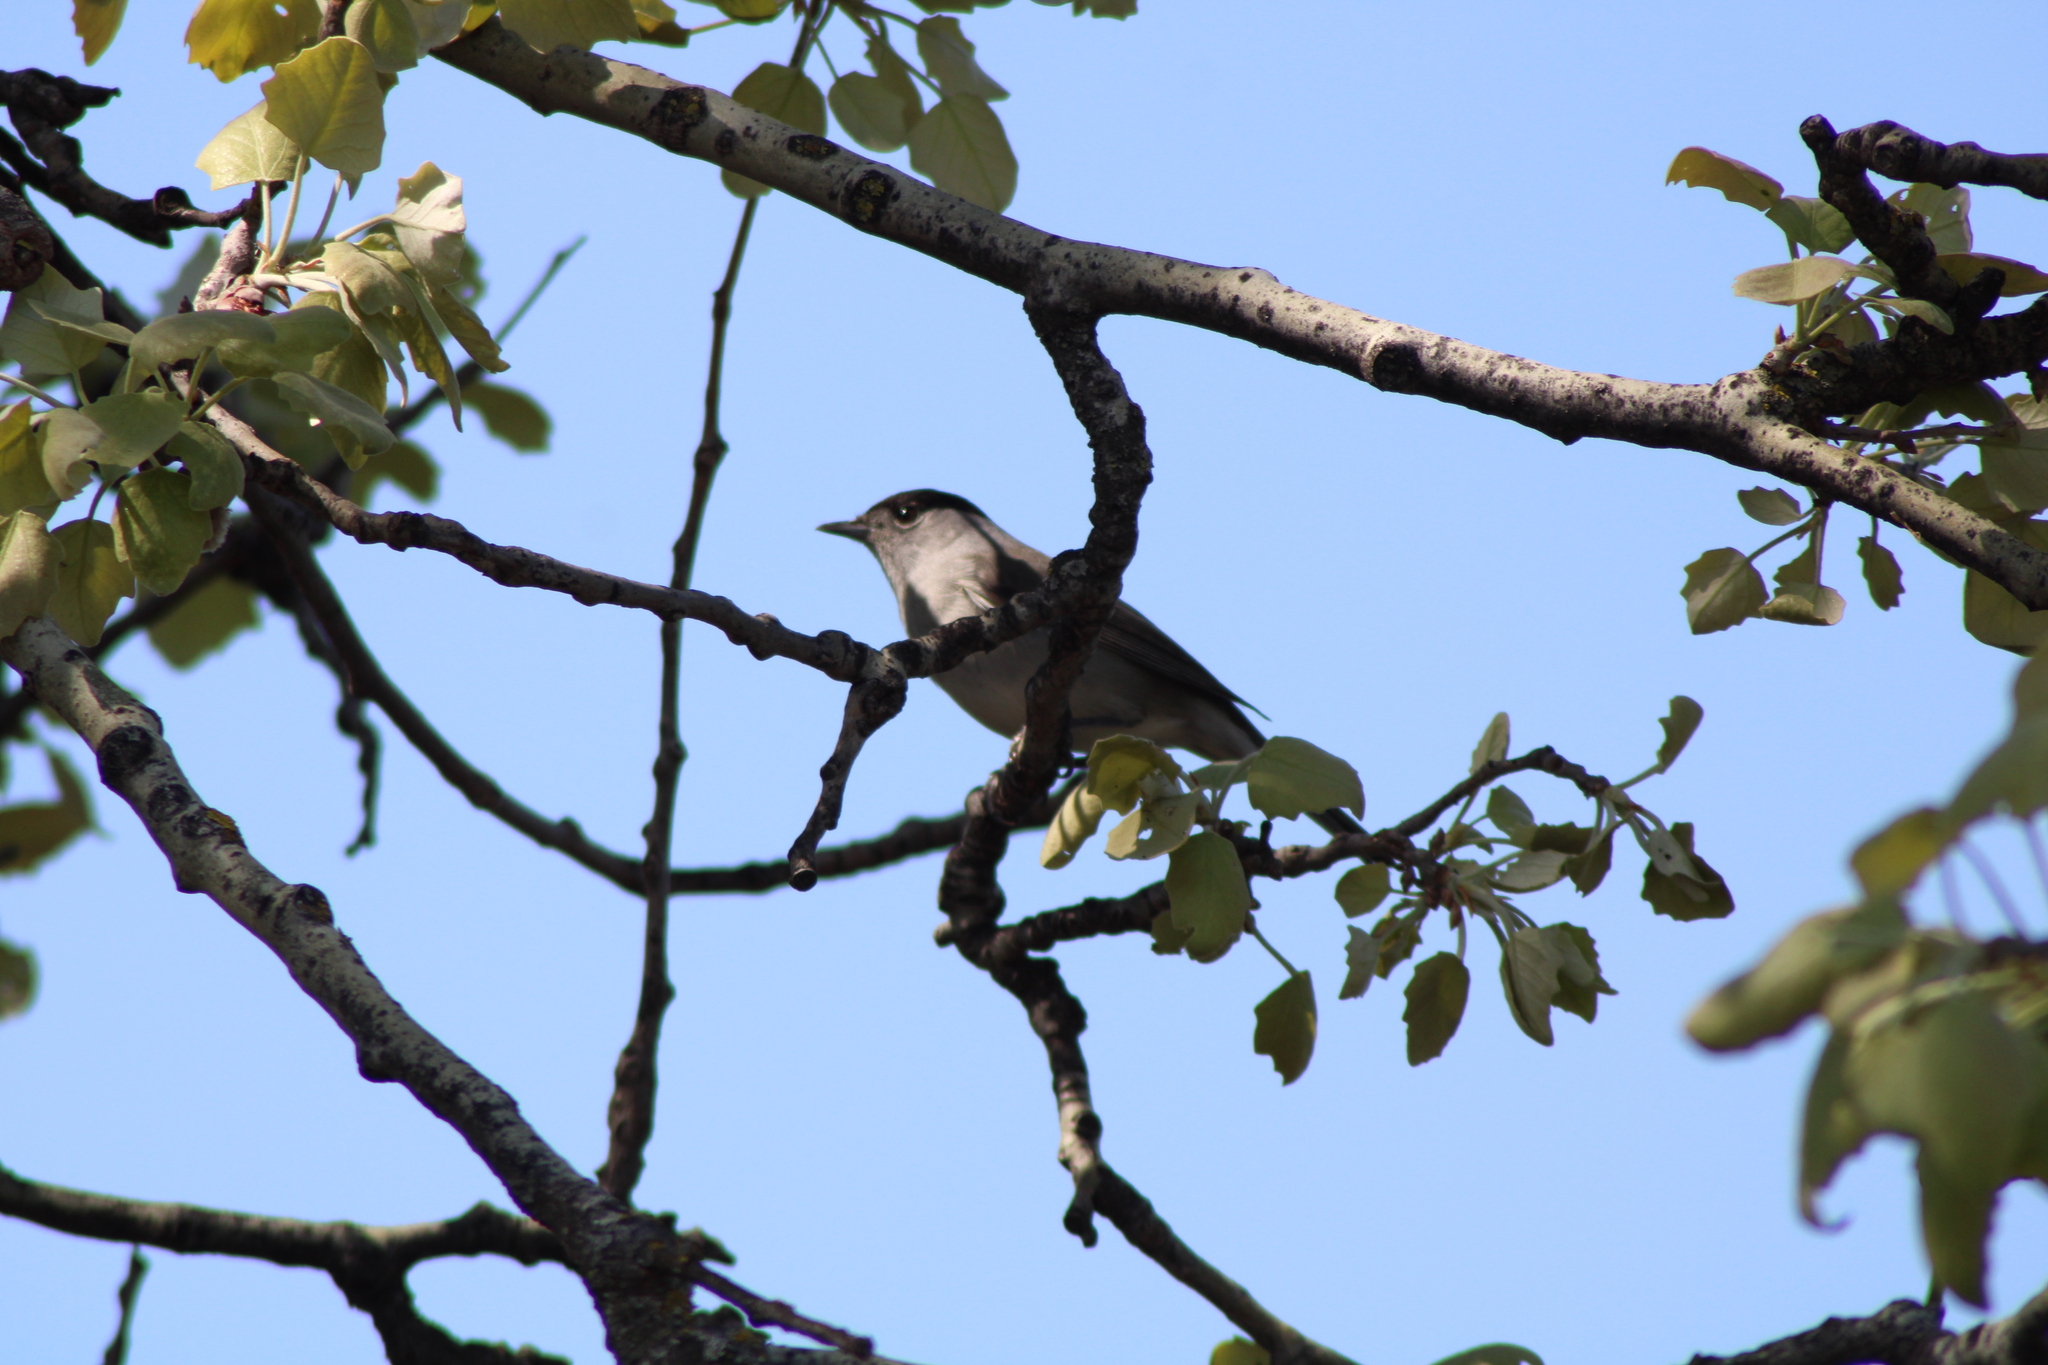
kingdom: Animalia
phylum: Chordata
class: Aves
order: Passeriformes
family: Sylviidae
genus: Sylvia
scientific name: Sylvia atricapilla
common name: Eurasian blackcap
